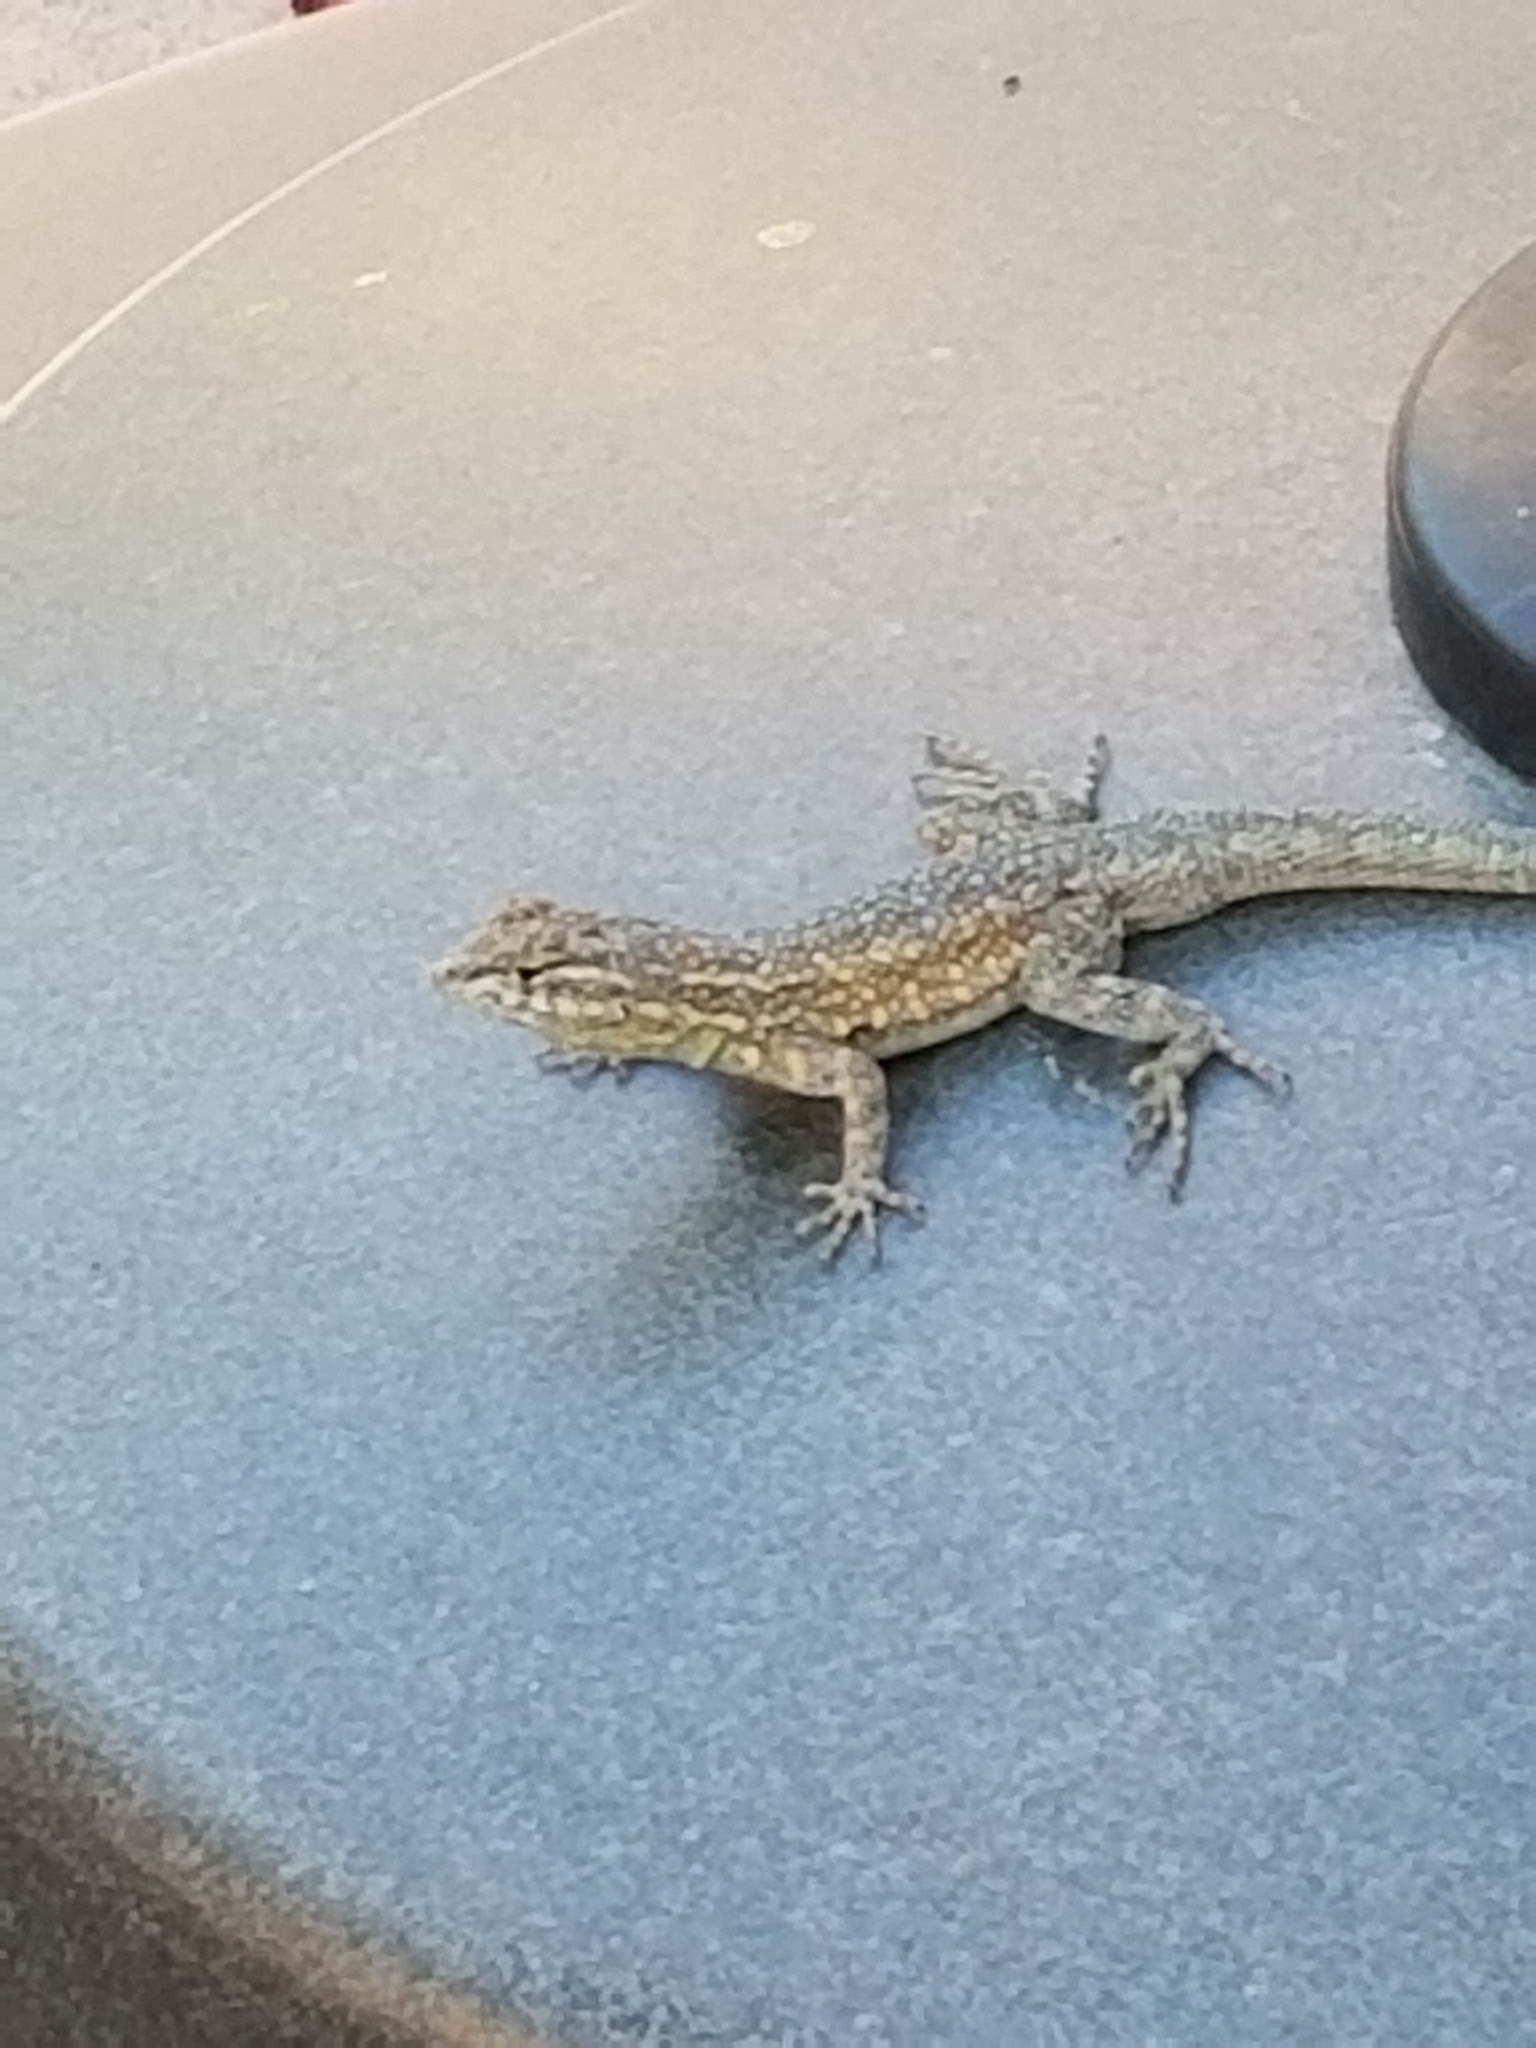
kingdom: Animalia
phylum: Chordata
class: Squamata
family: Phrynosomatidae
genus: Uta
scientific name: Uta stansburiana
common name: Side-blotched lizard
